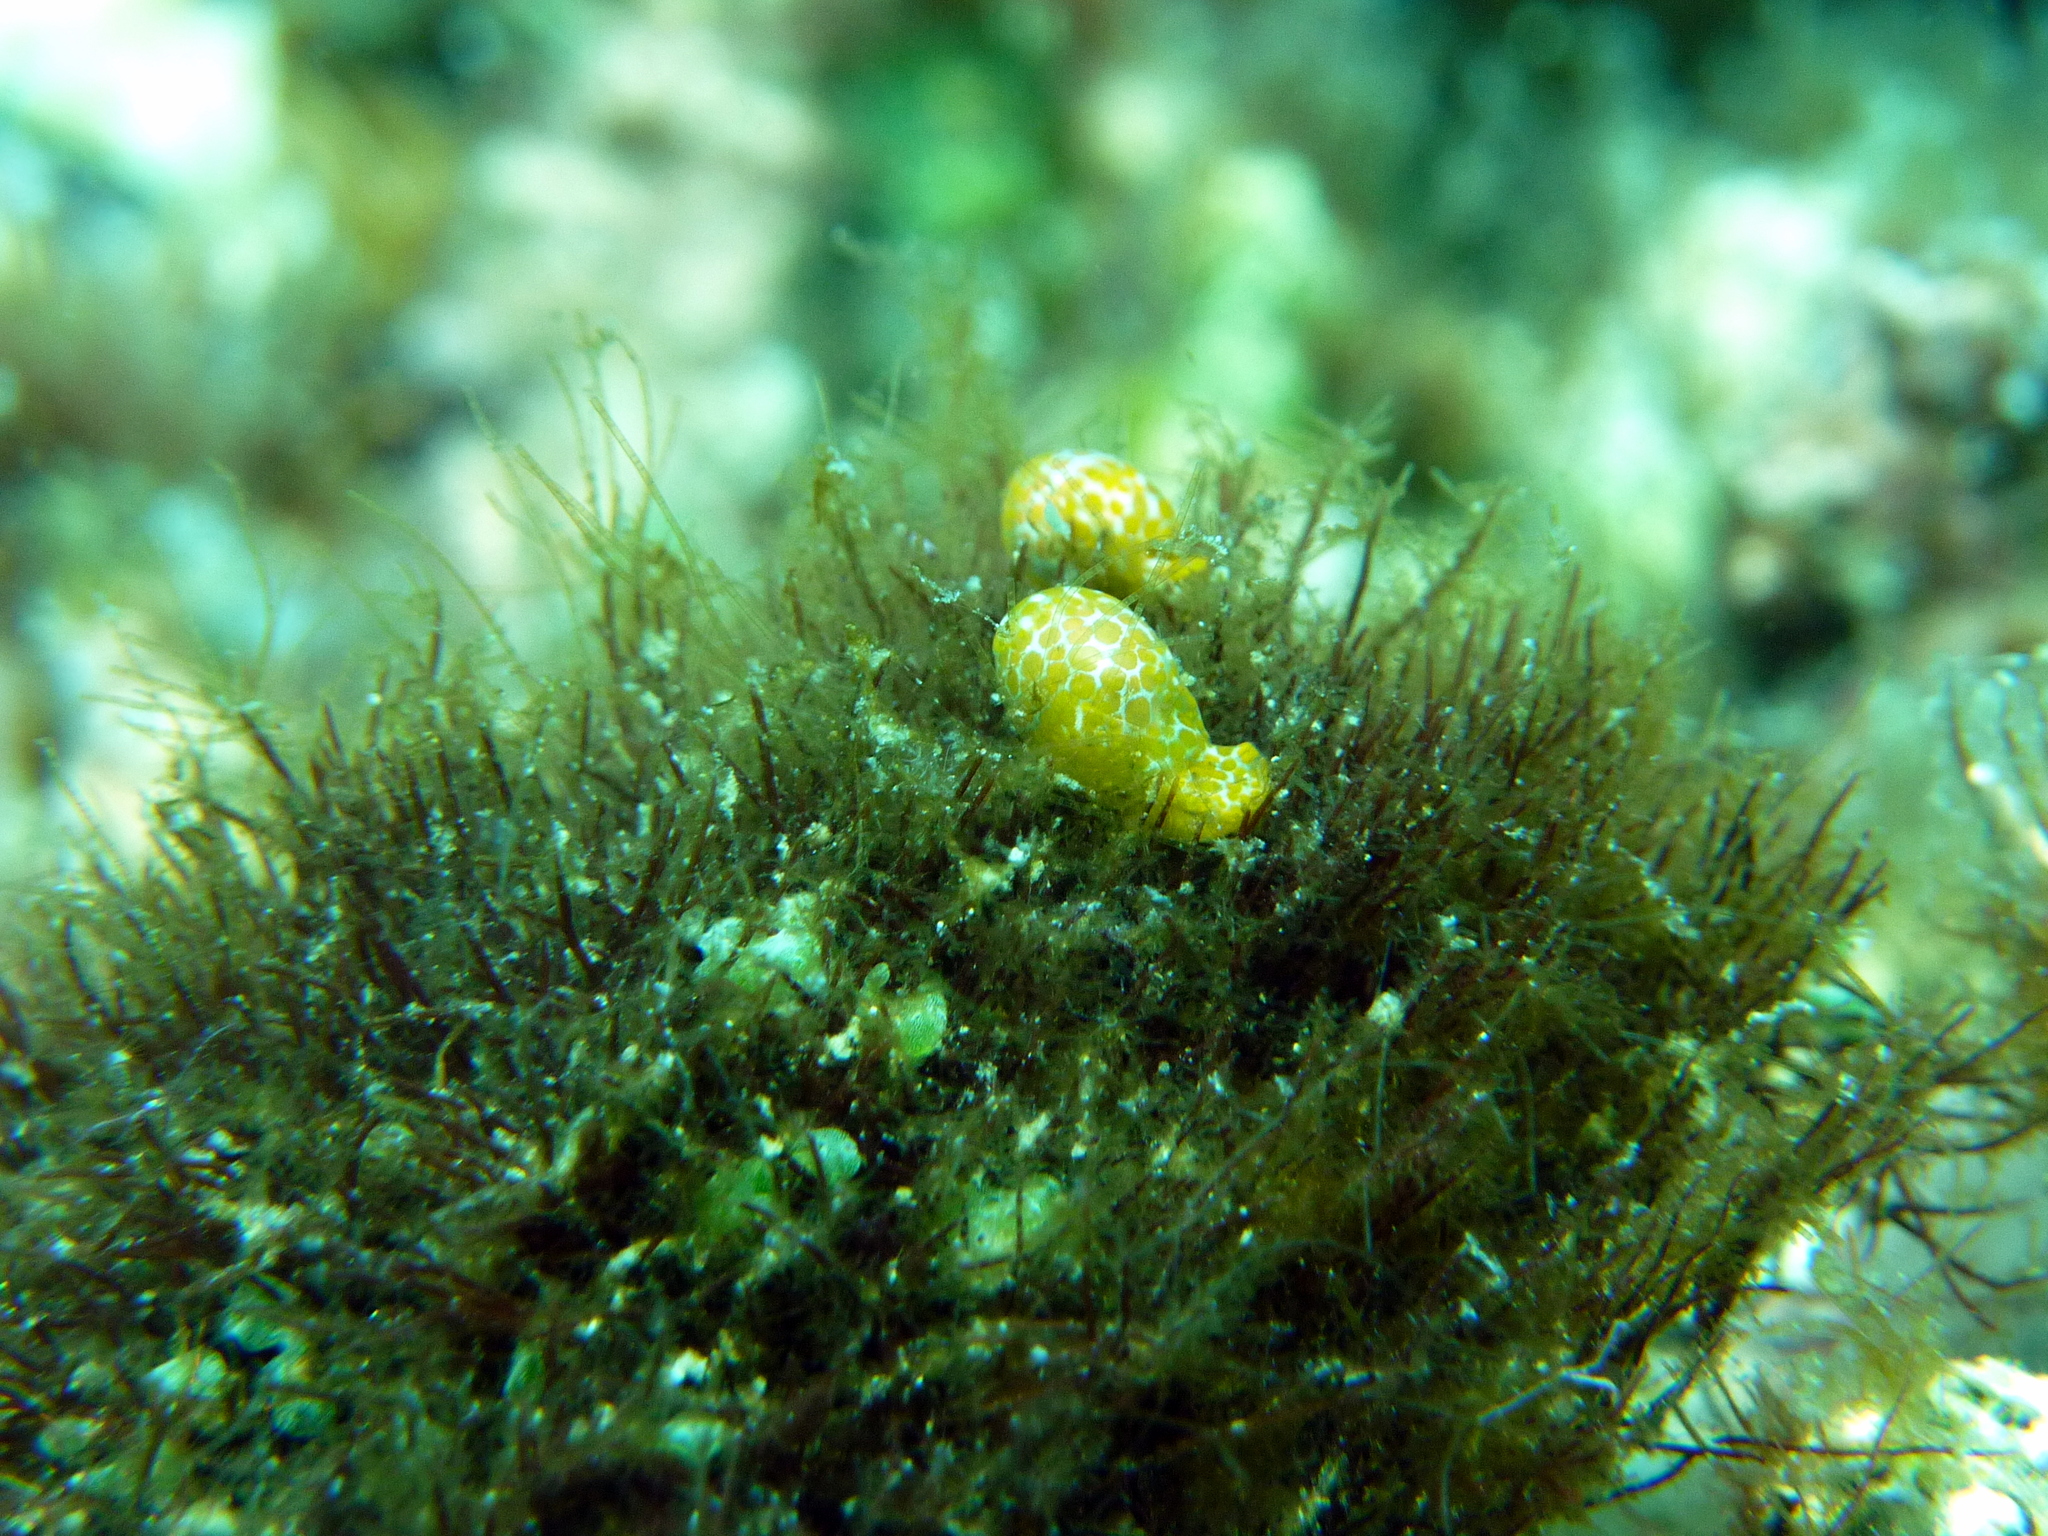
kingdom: Animalia
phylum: Mollusca
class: Gastropoda
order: Cephalaspidea
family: Haminoeidae
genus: Lamprohaminoea
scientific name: Lamprohaminoea evelinae
